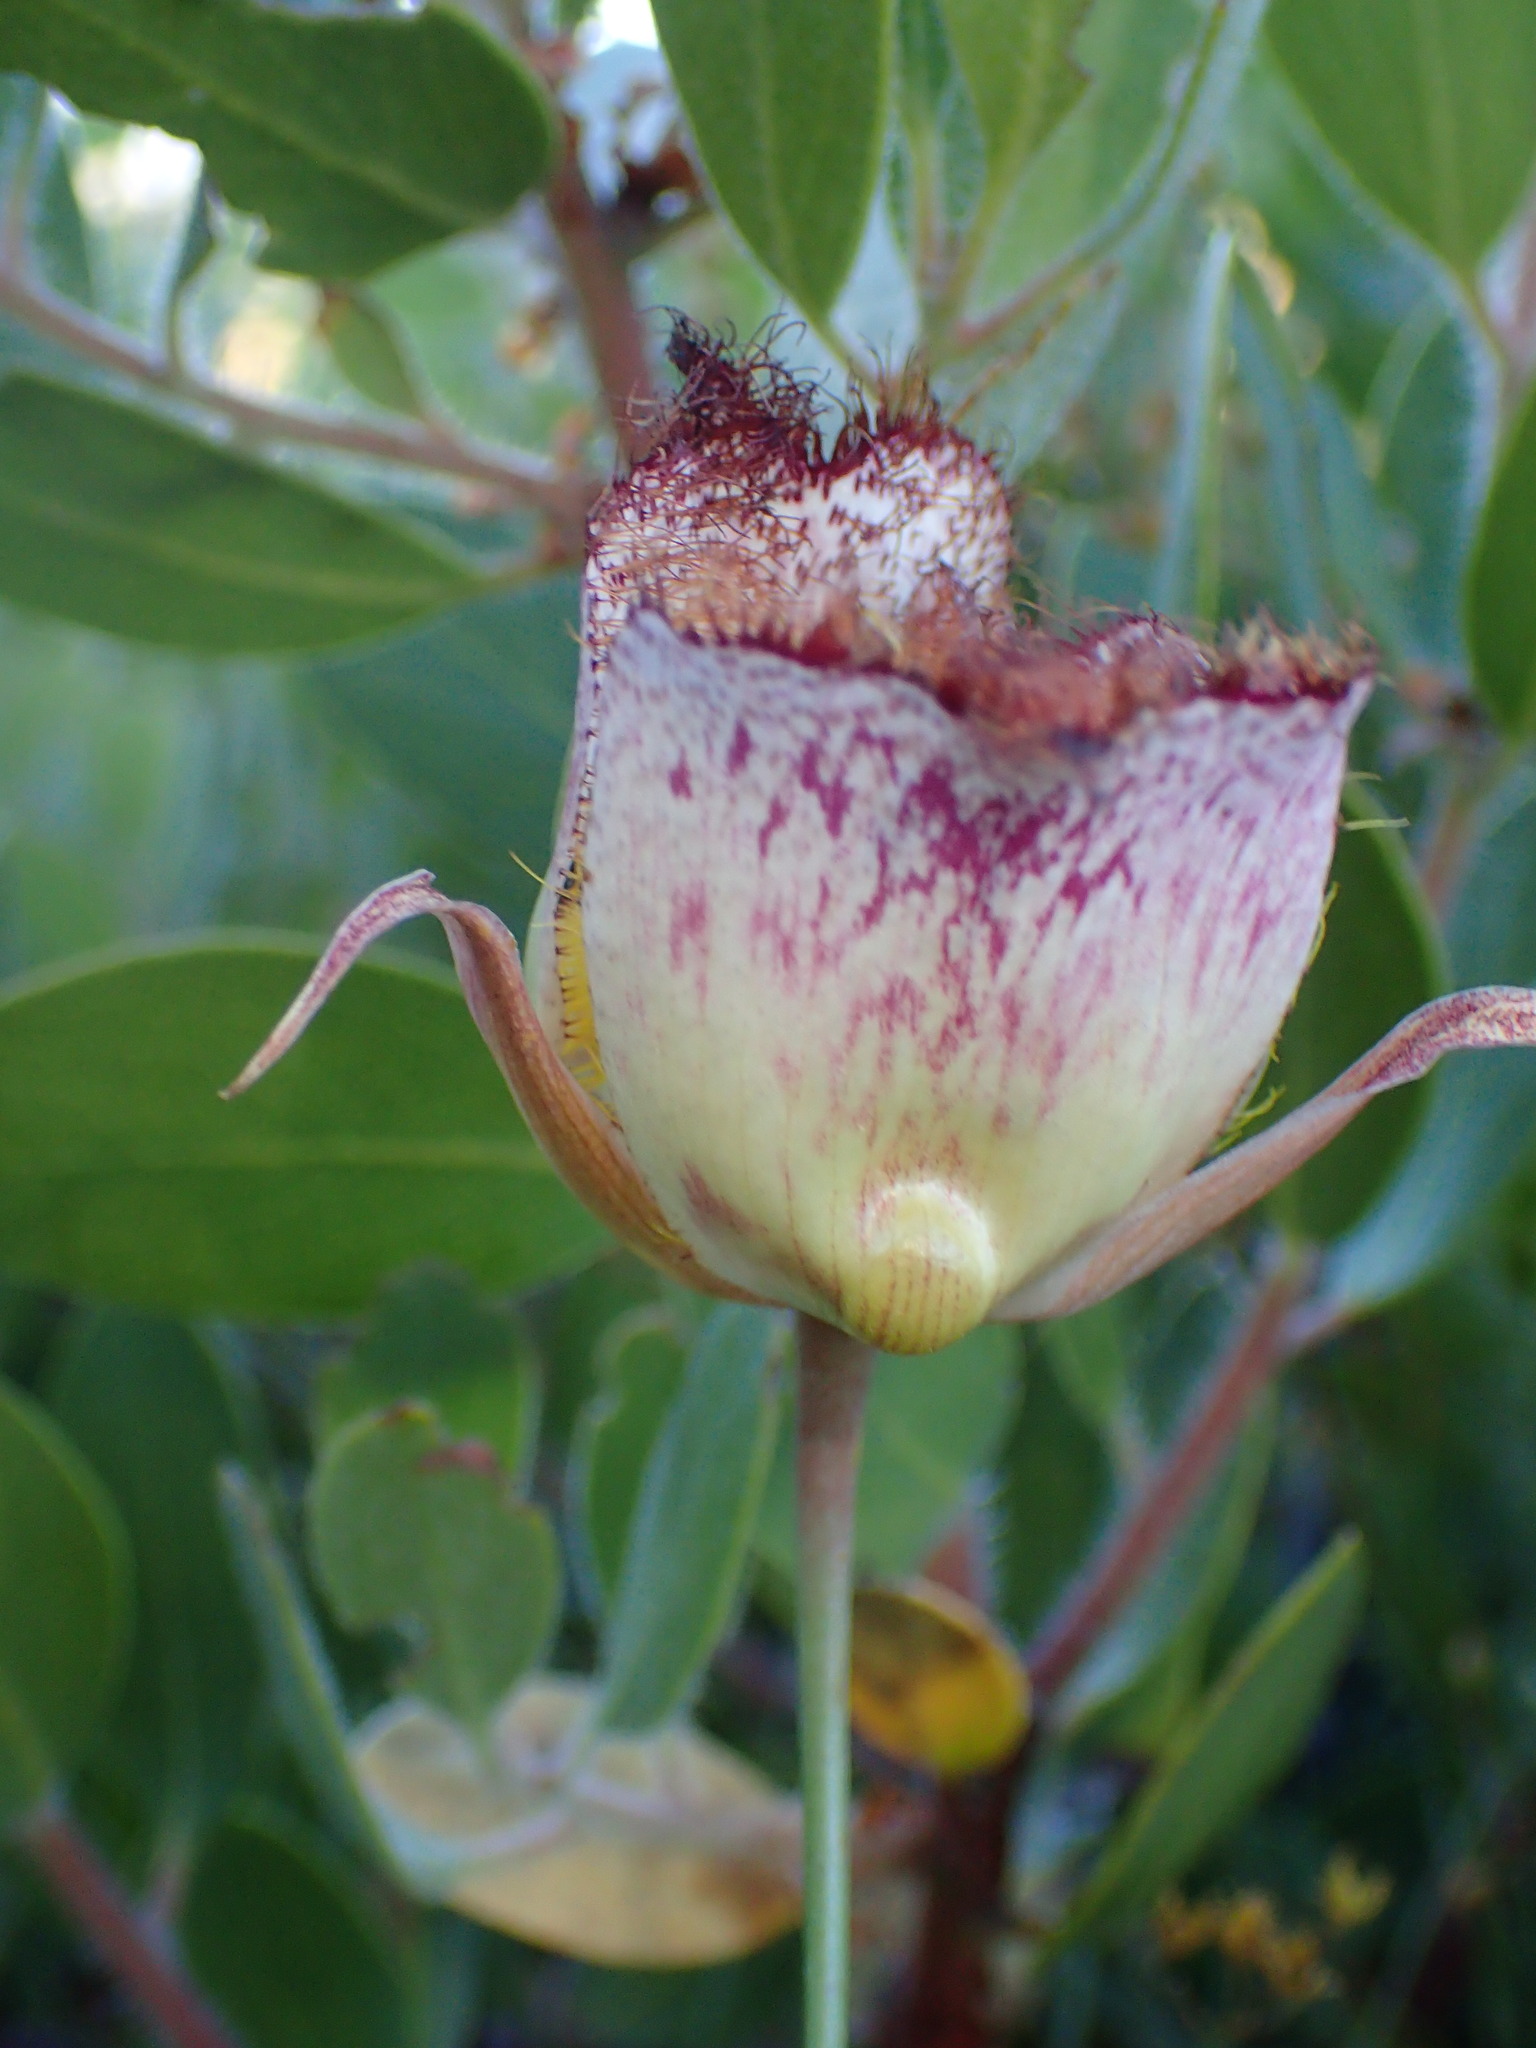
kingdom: Plantae
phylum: Tracheophyta
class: Liliopsida
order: Liliales
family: Liliaceae
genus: Calochortus
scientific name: Calochortus fimbriatus
